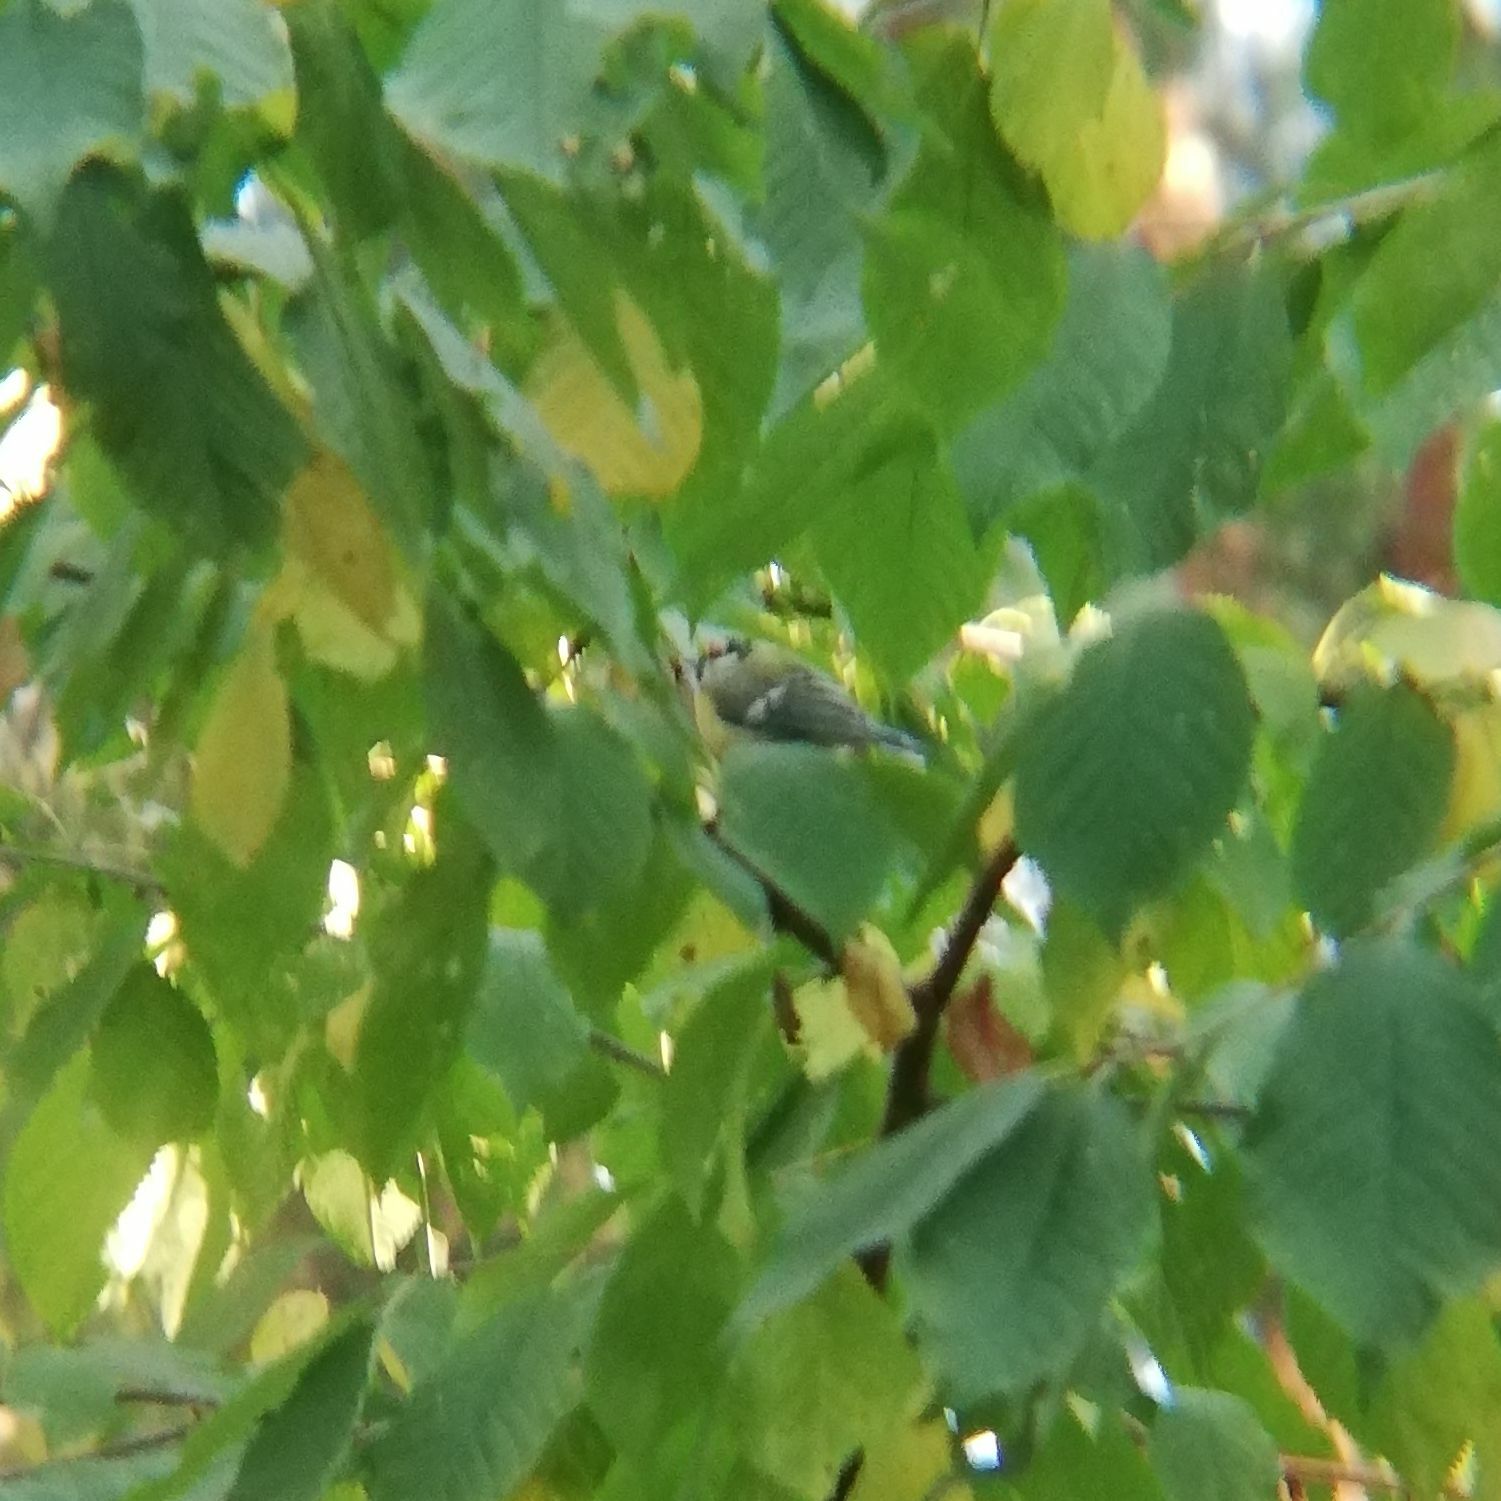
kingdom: Animalia
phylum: Chordata
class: Aves
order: Passeriformes
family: Paridae
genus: Parus
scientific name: Parus major
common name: Great tit
